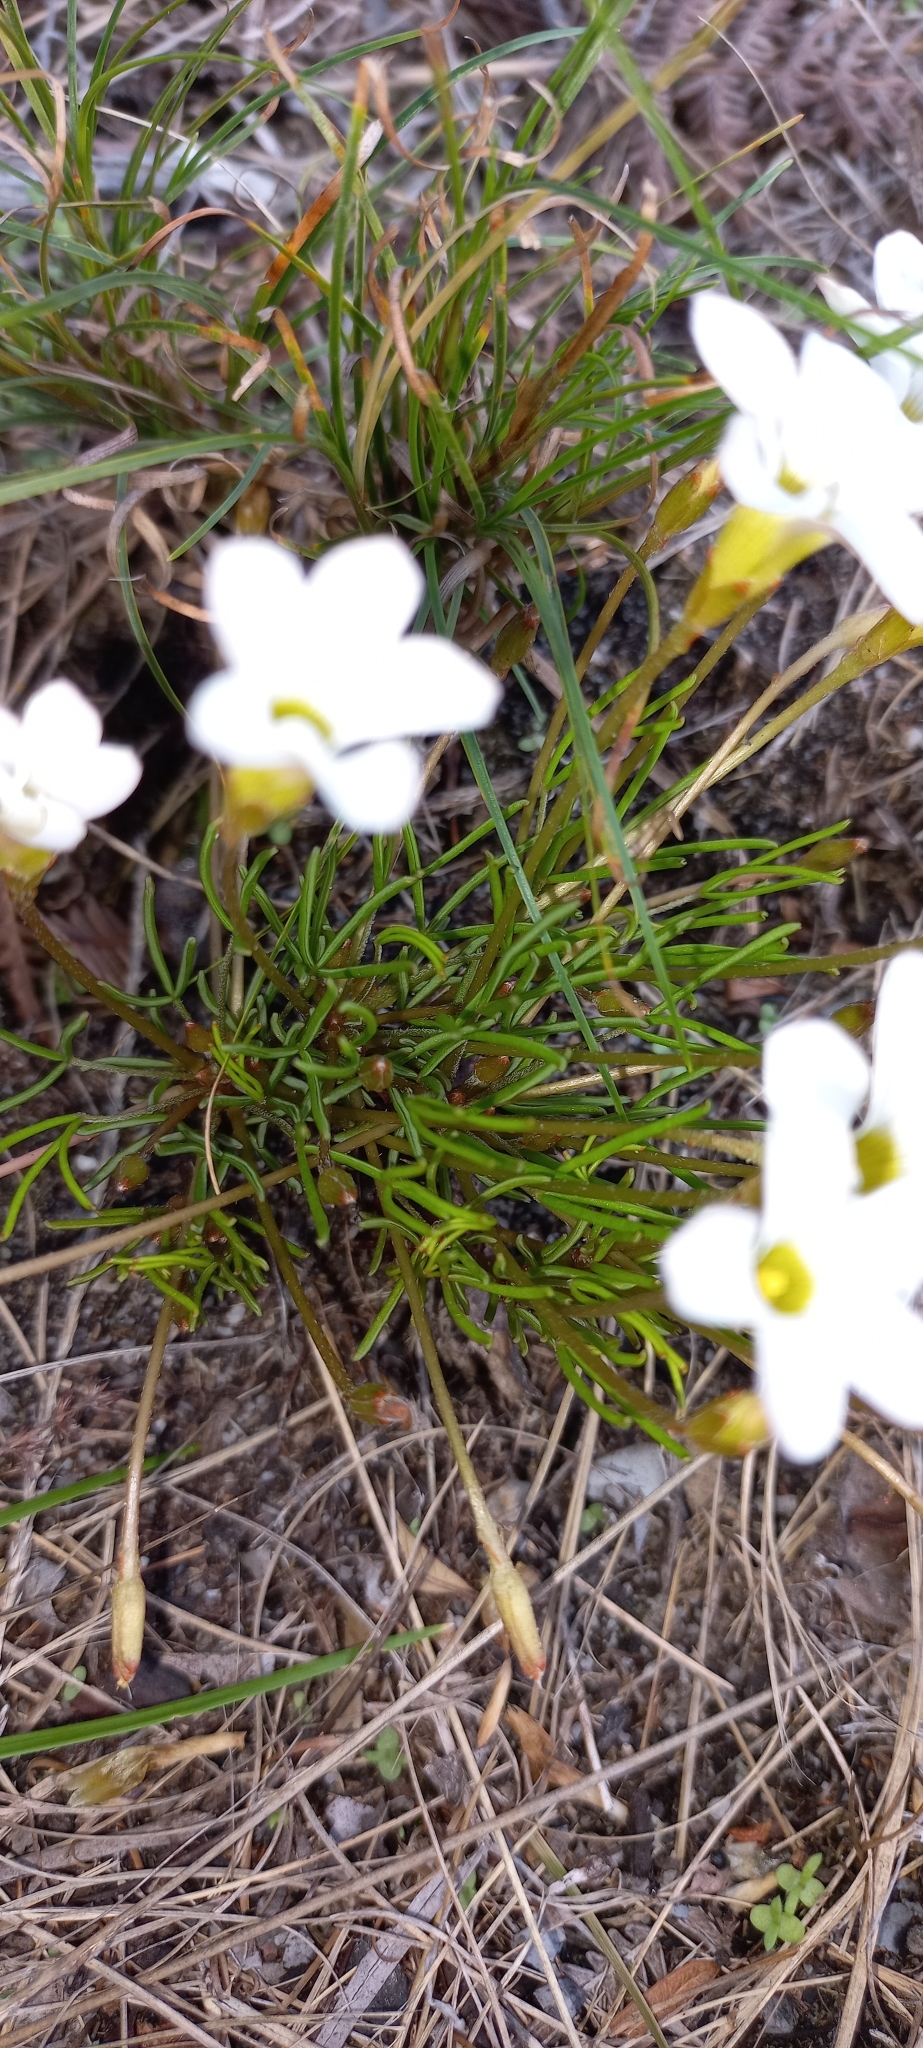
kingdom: Plantae
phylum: Tracheophyta
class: Magnoliopsida
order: Oxalidales
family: Oxalidaceae
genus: Oxalis
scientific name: Oxalis polyphylla
